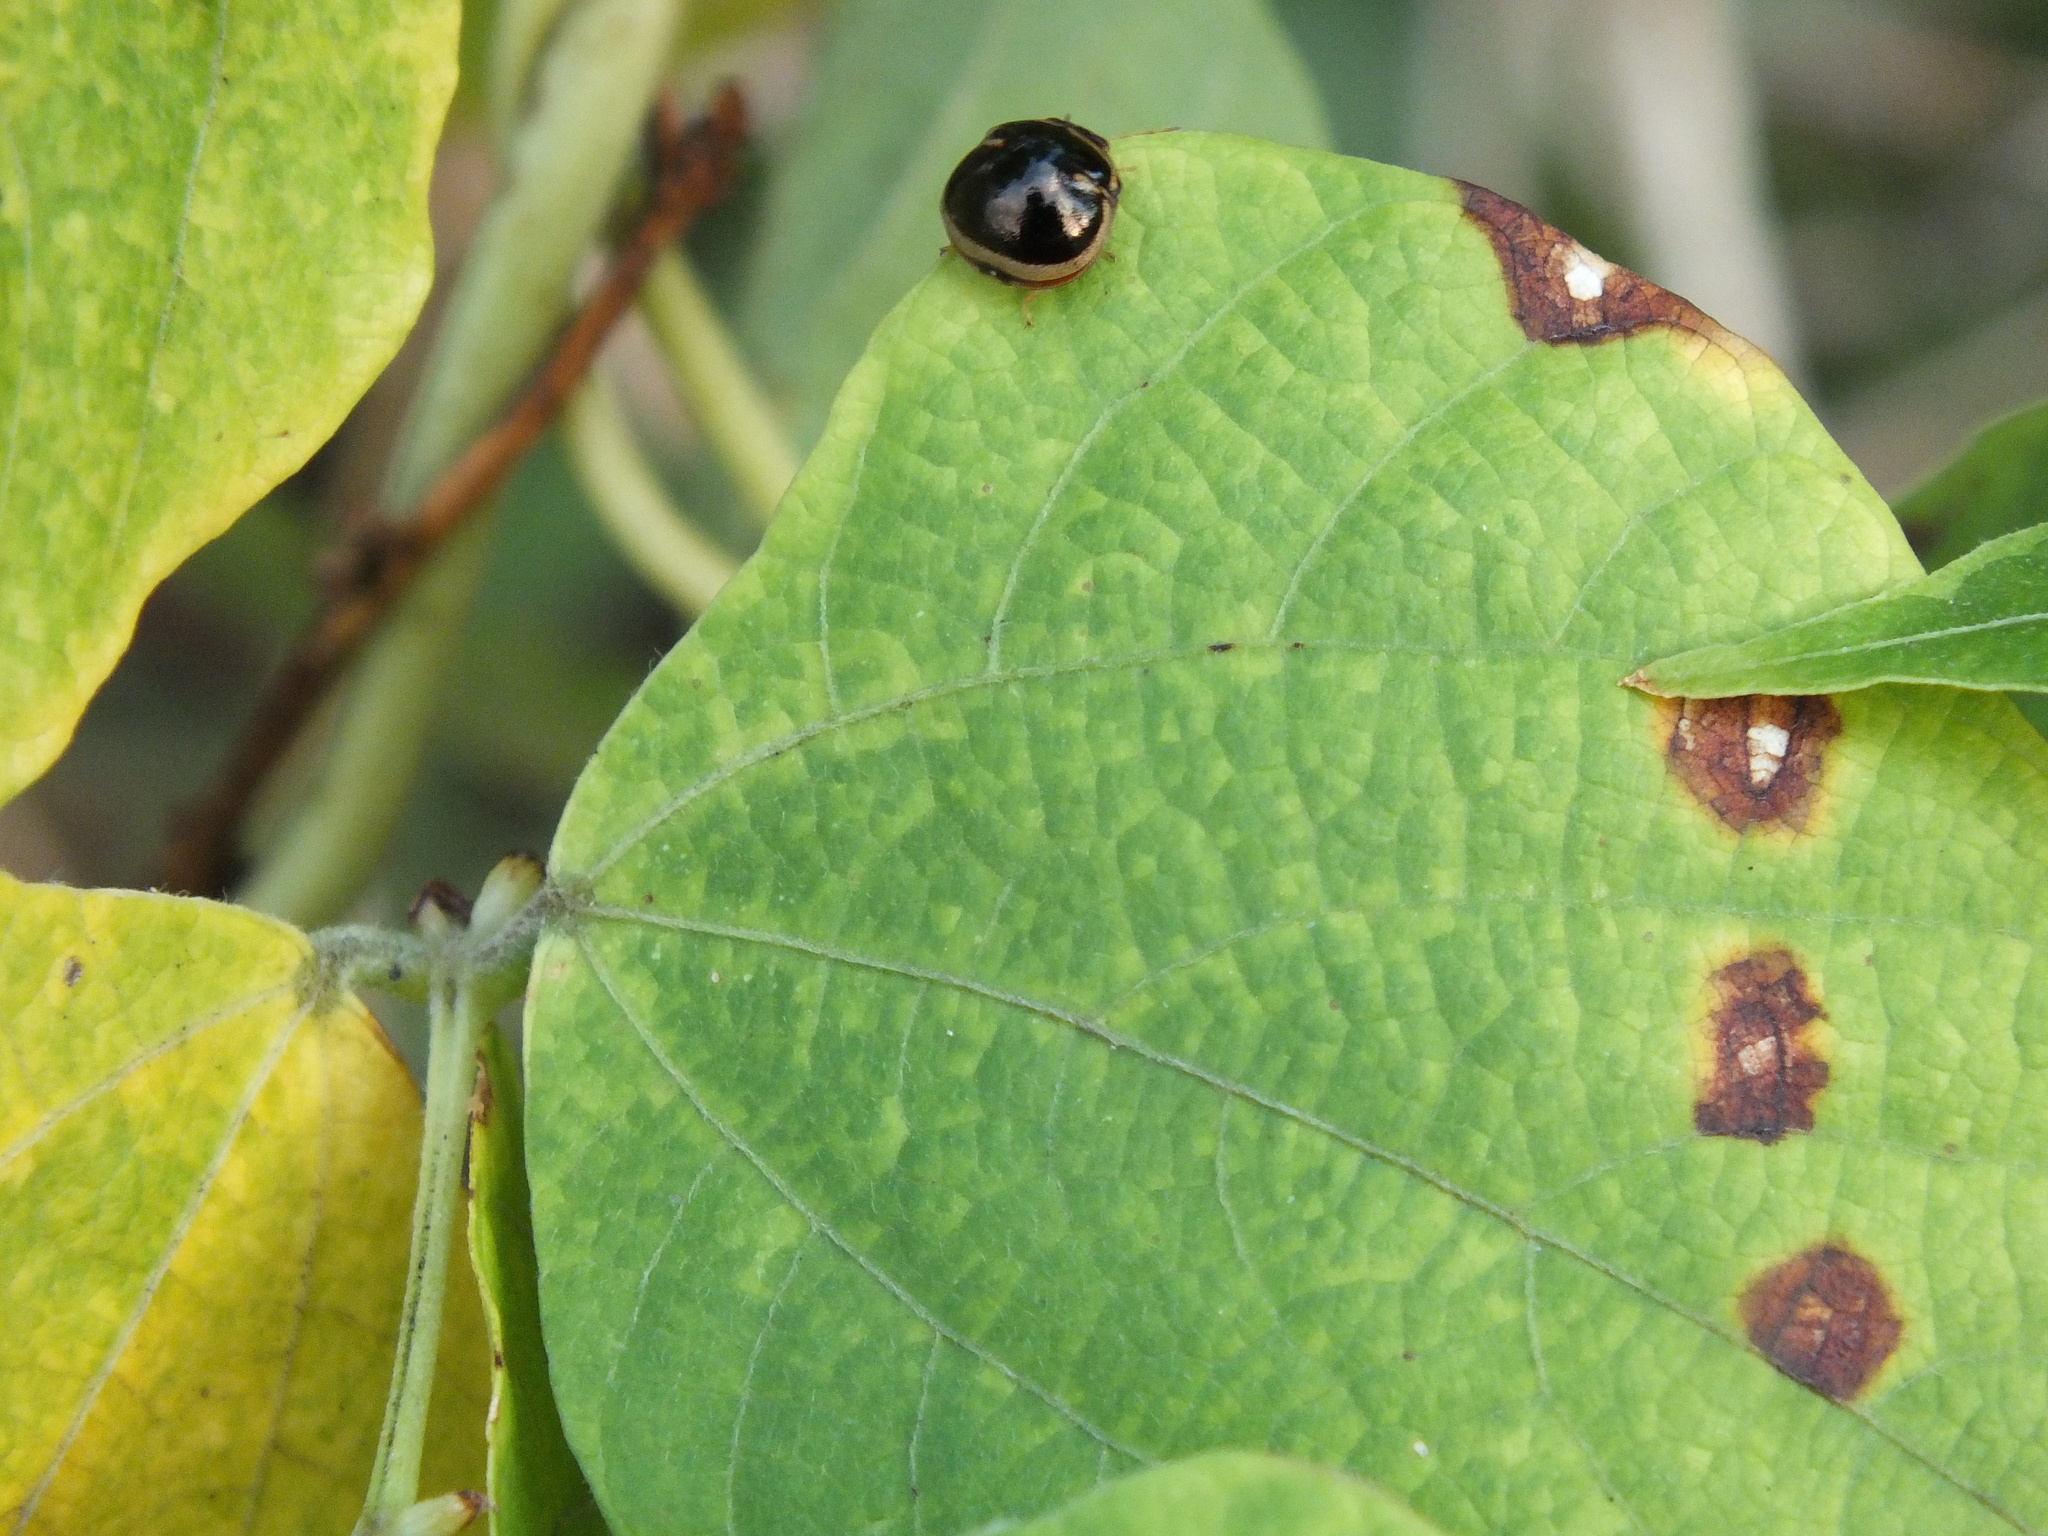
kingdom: Animalia
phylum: Arthropoda
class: Insecta
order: Hemiptera
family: Plataspidae
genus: Coptosoma
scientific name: Coptosoma
